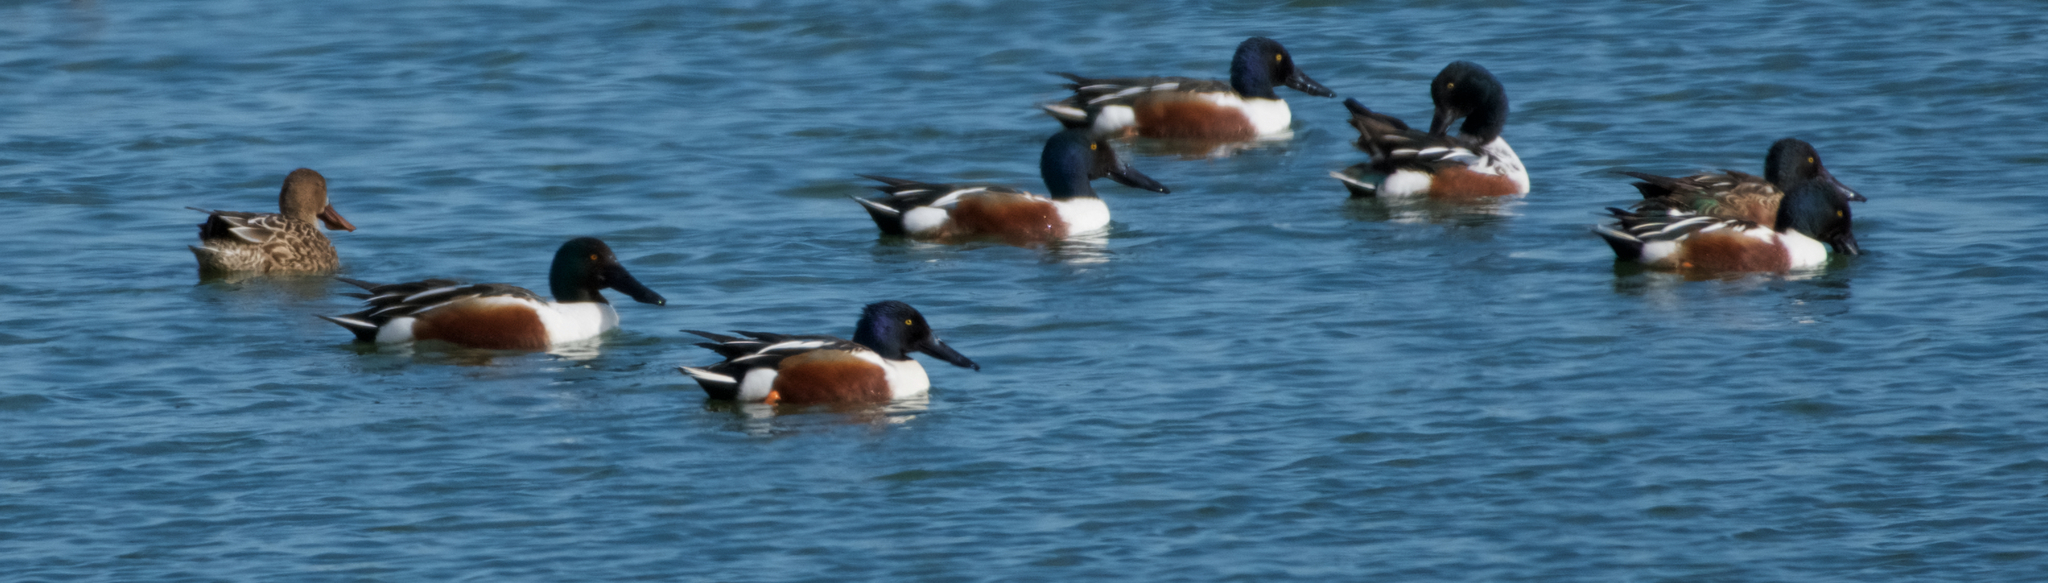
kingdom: Animalia
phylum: Chordata
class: Aves
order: Anseriformes
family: Anatidae
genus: Spatula
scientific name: Spatula clypeata
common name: Northern shoveler
